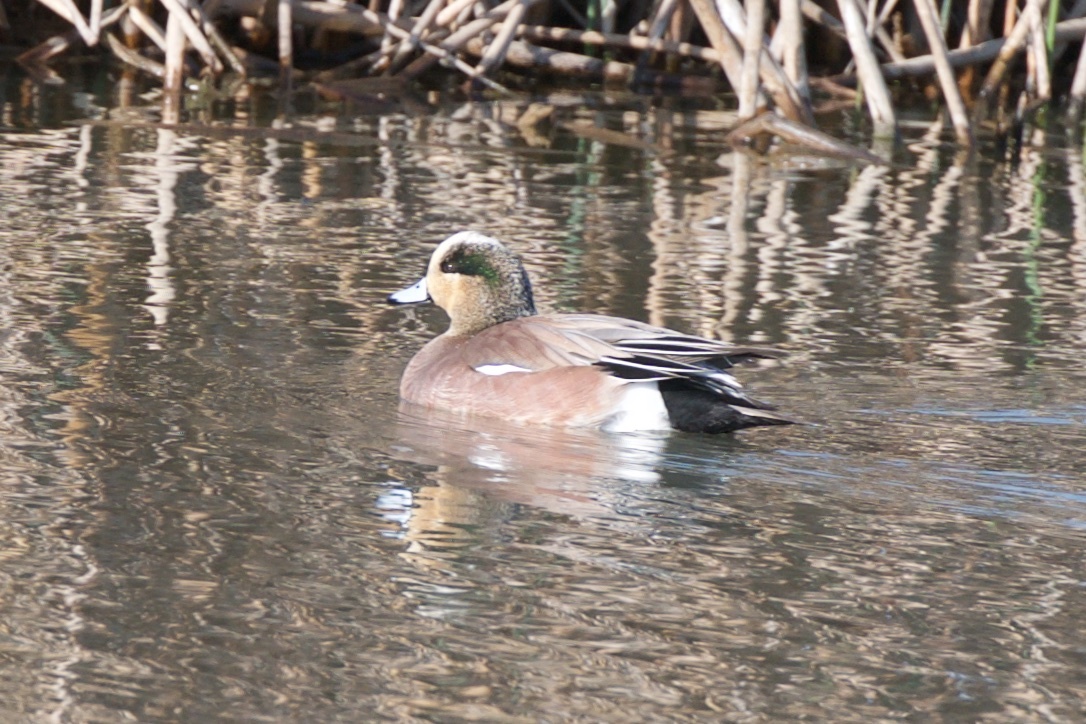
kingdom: Animalia
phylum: Chordata
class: Aves
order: Anseriformes
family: Anatidae
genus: Mareca
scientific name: Mareca americana
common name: American wigeon
